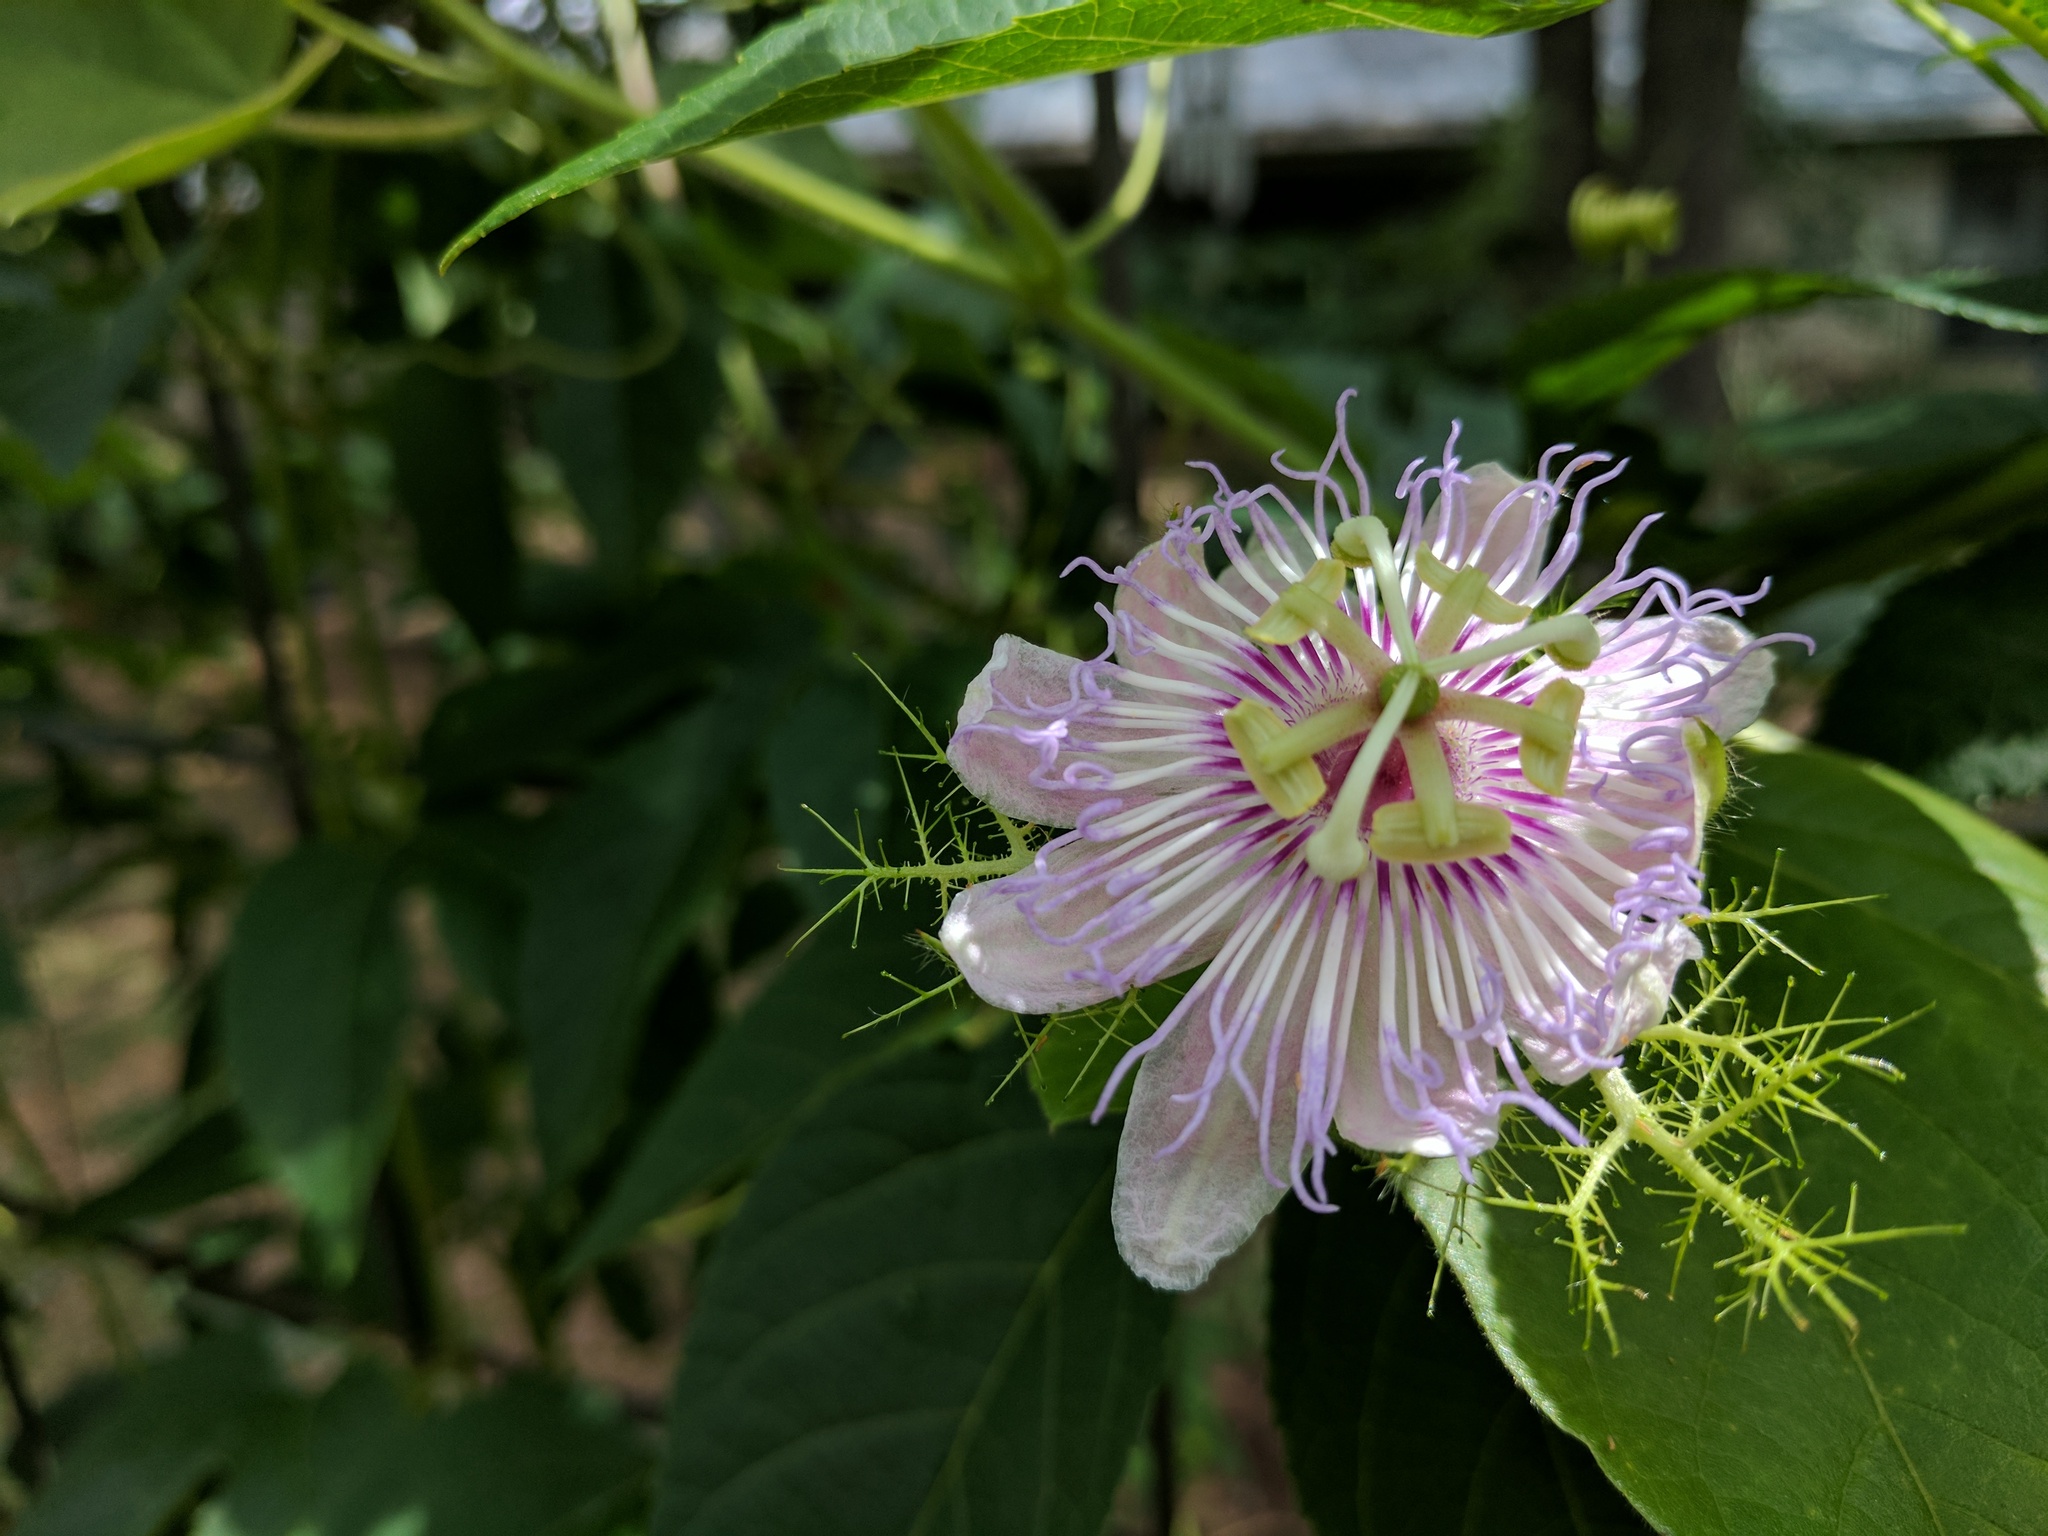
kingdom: Plantae
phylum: Tracheophyta
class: Magnoliopsida
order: Malpighiales
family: Passifloraceae
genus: Passiflora
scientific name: Passiflora
